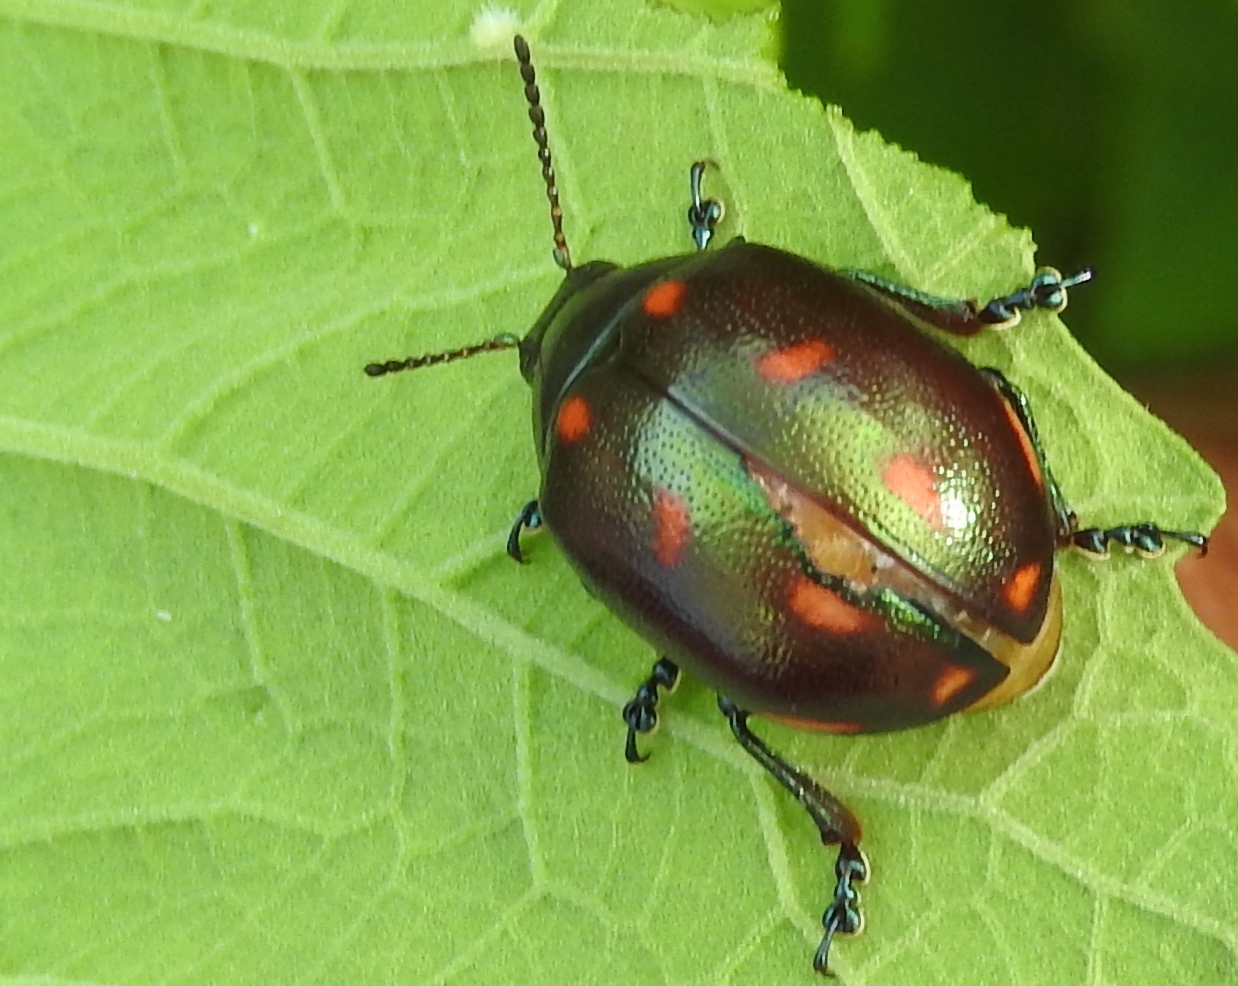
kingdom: Animalia
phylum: Arthropoda
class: Insecta
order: Coleoptera
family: Chrysomelidae
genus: Leptinotarsa
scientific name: Leptinotarsa behrensi
